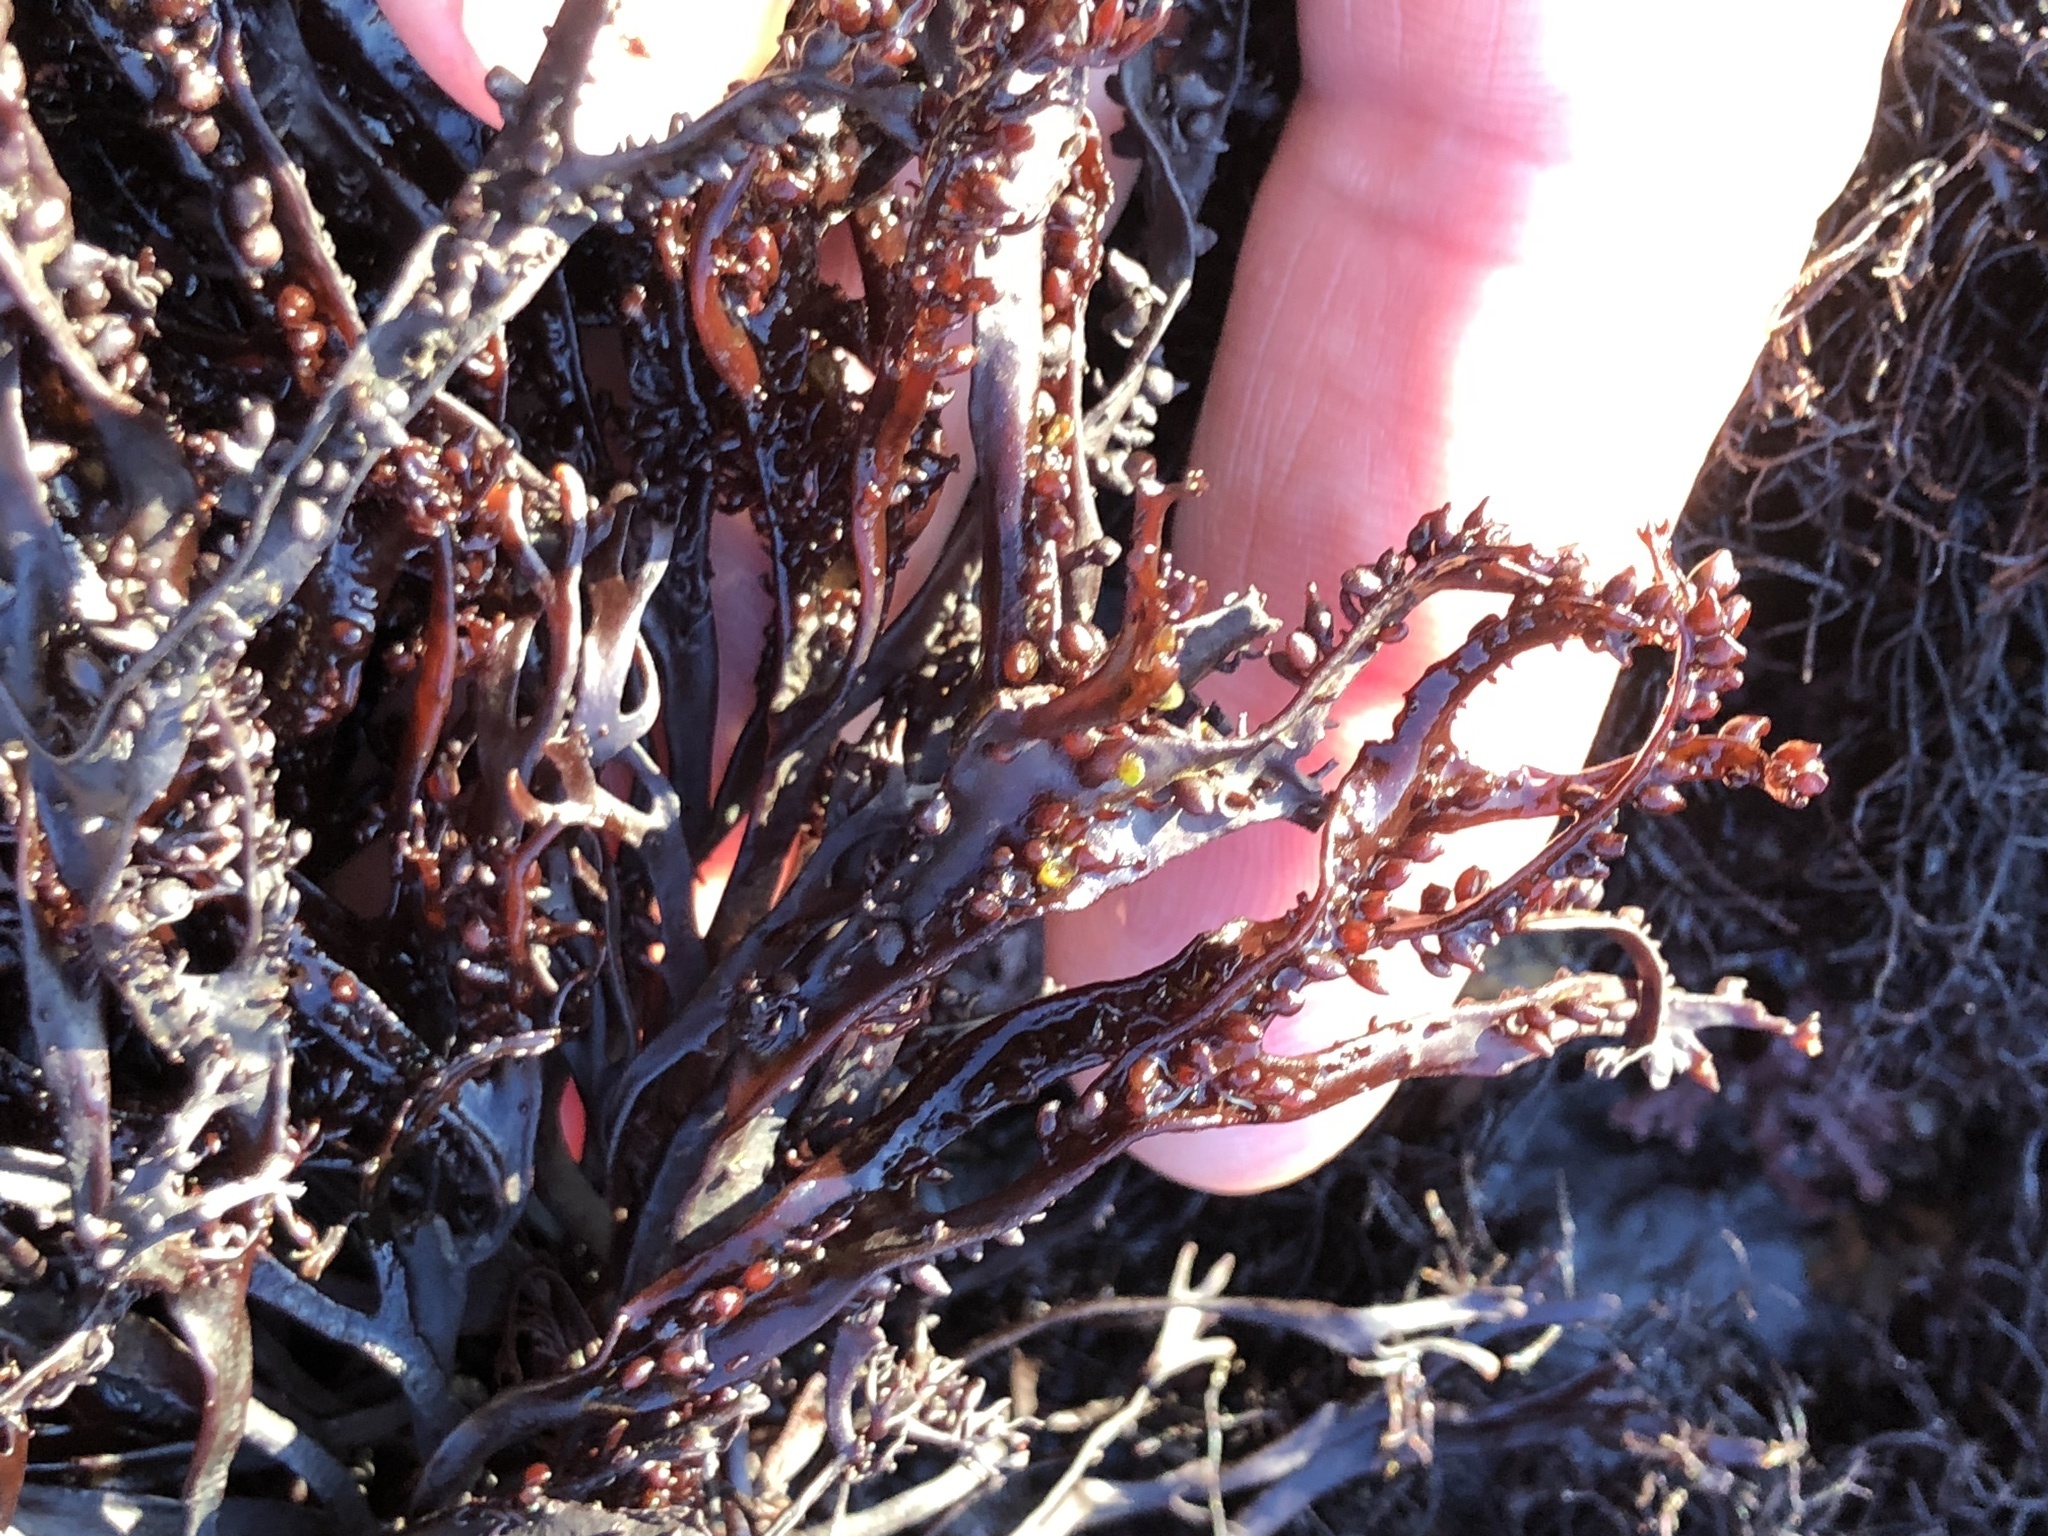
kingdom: Plantae
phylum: Rhodophyta
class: Florideophyceae
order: Gigartinales
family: Phyllophoraceae
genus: Mastocarpus
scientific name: Mastocarpus jardinii
